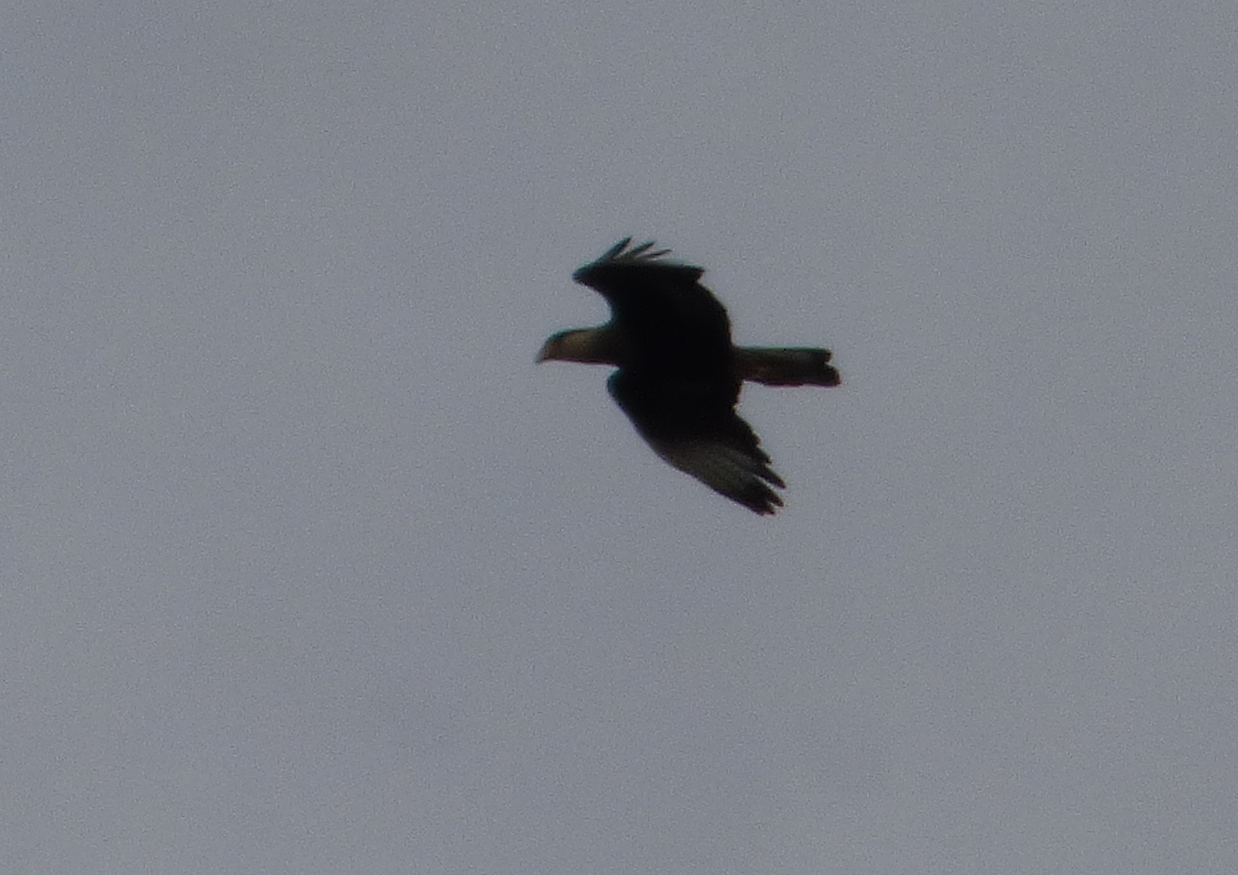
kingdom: Animalia
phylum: Chordata
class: Aves
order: Falconiformes
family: Falconidae
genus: Caracara
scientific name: Caracara plancus
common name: Southern caracara
